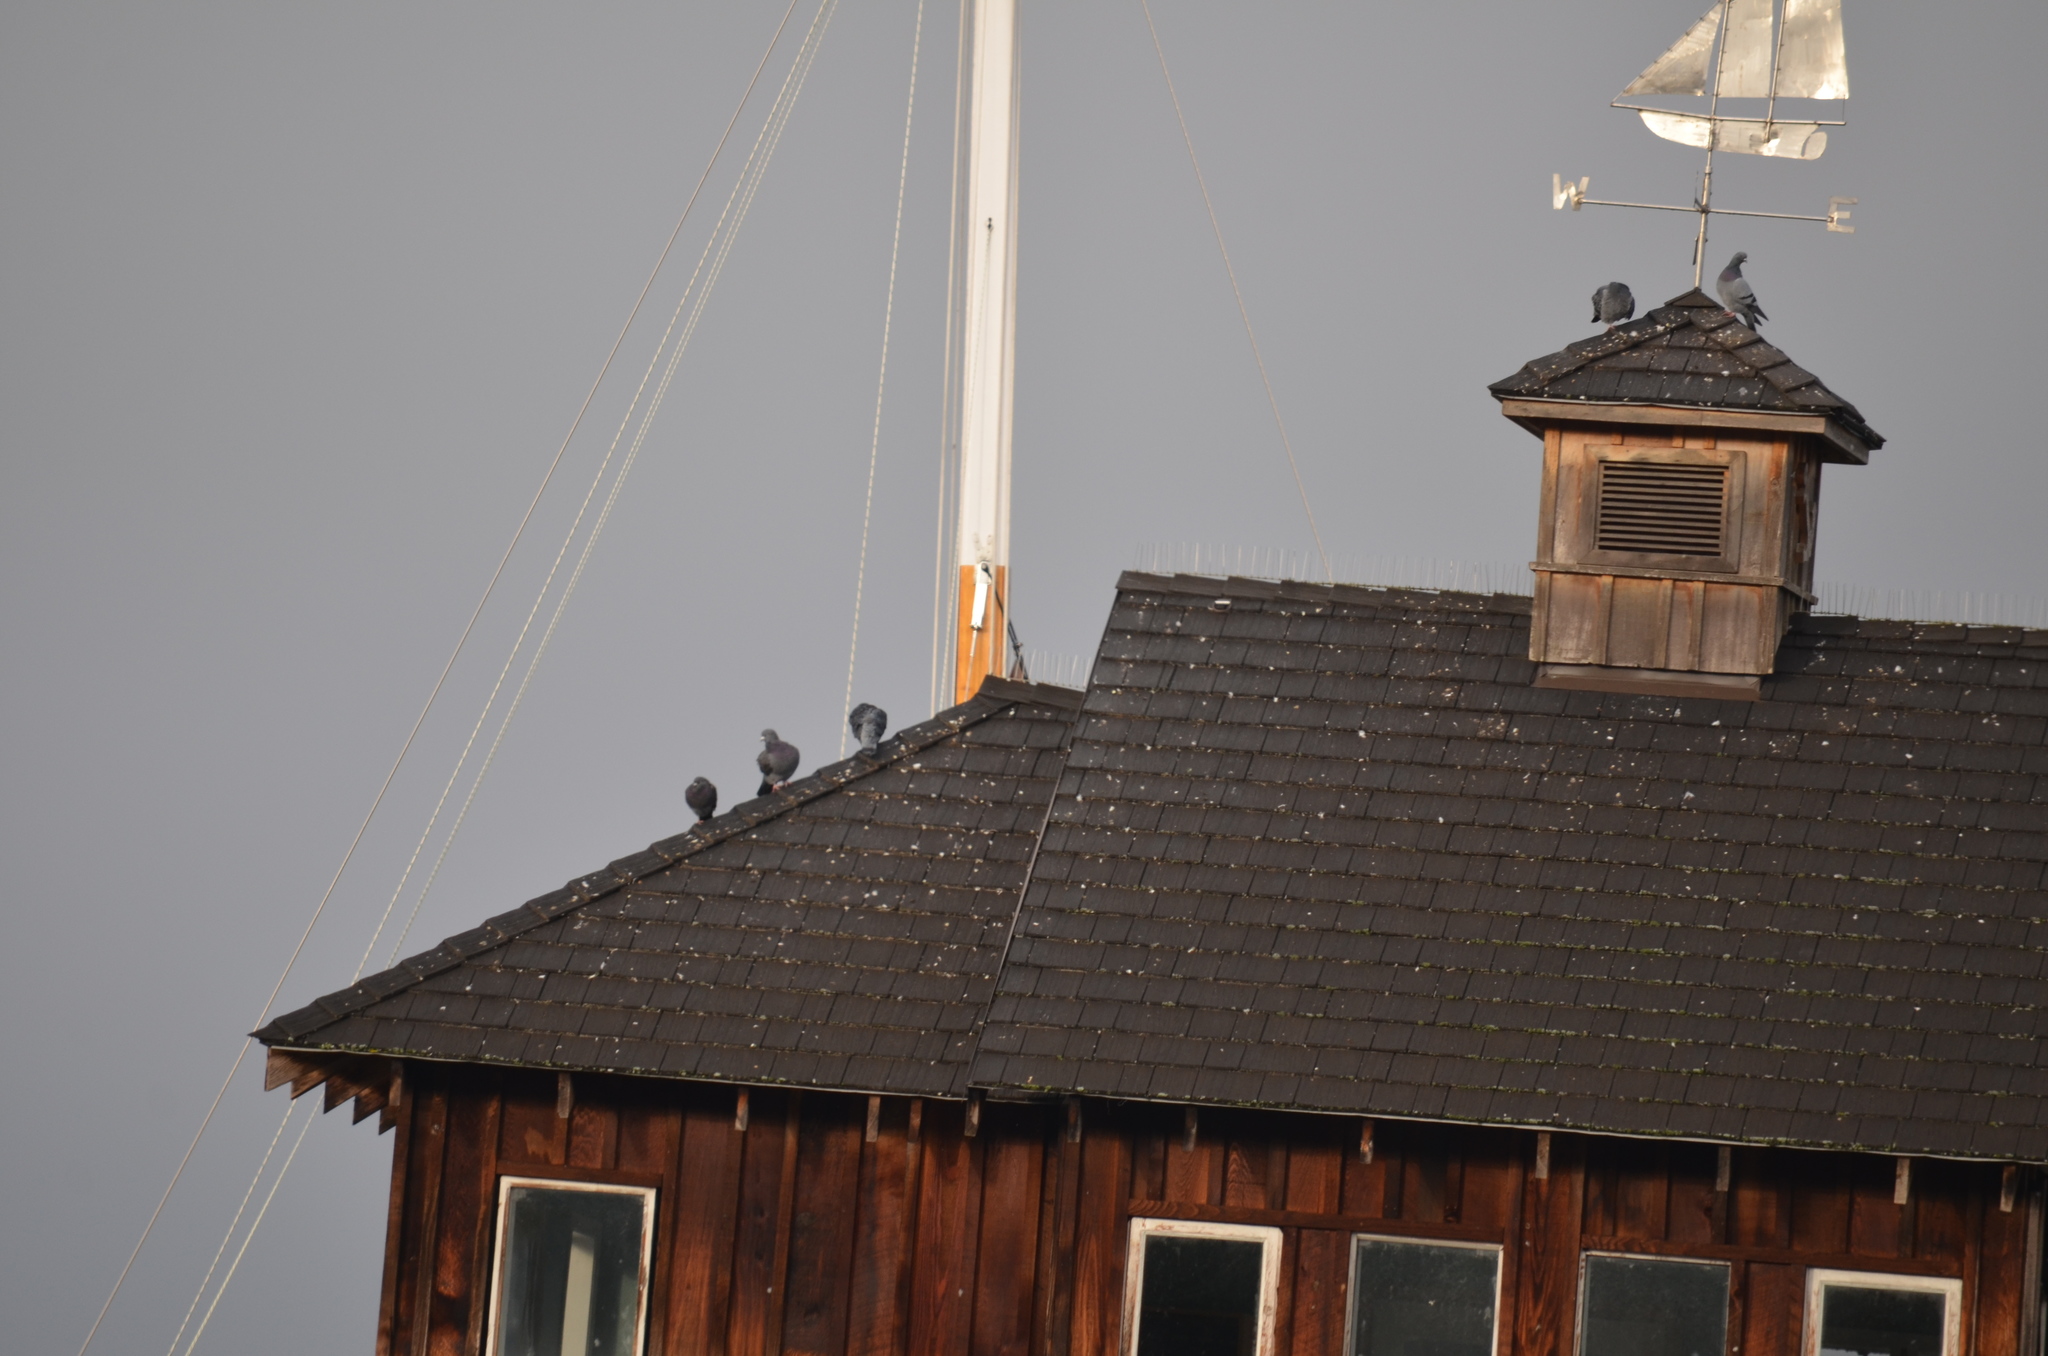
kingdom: Animalia
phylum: Chordata
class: Aves
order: Columbiformes
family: Columbidae
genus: Columba
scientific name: Columba livia
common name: Rock pigeon
